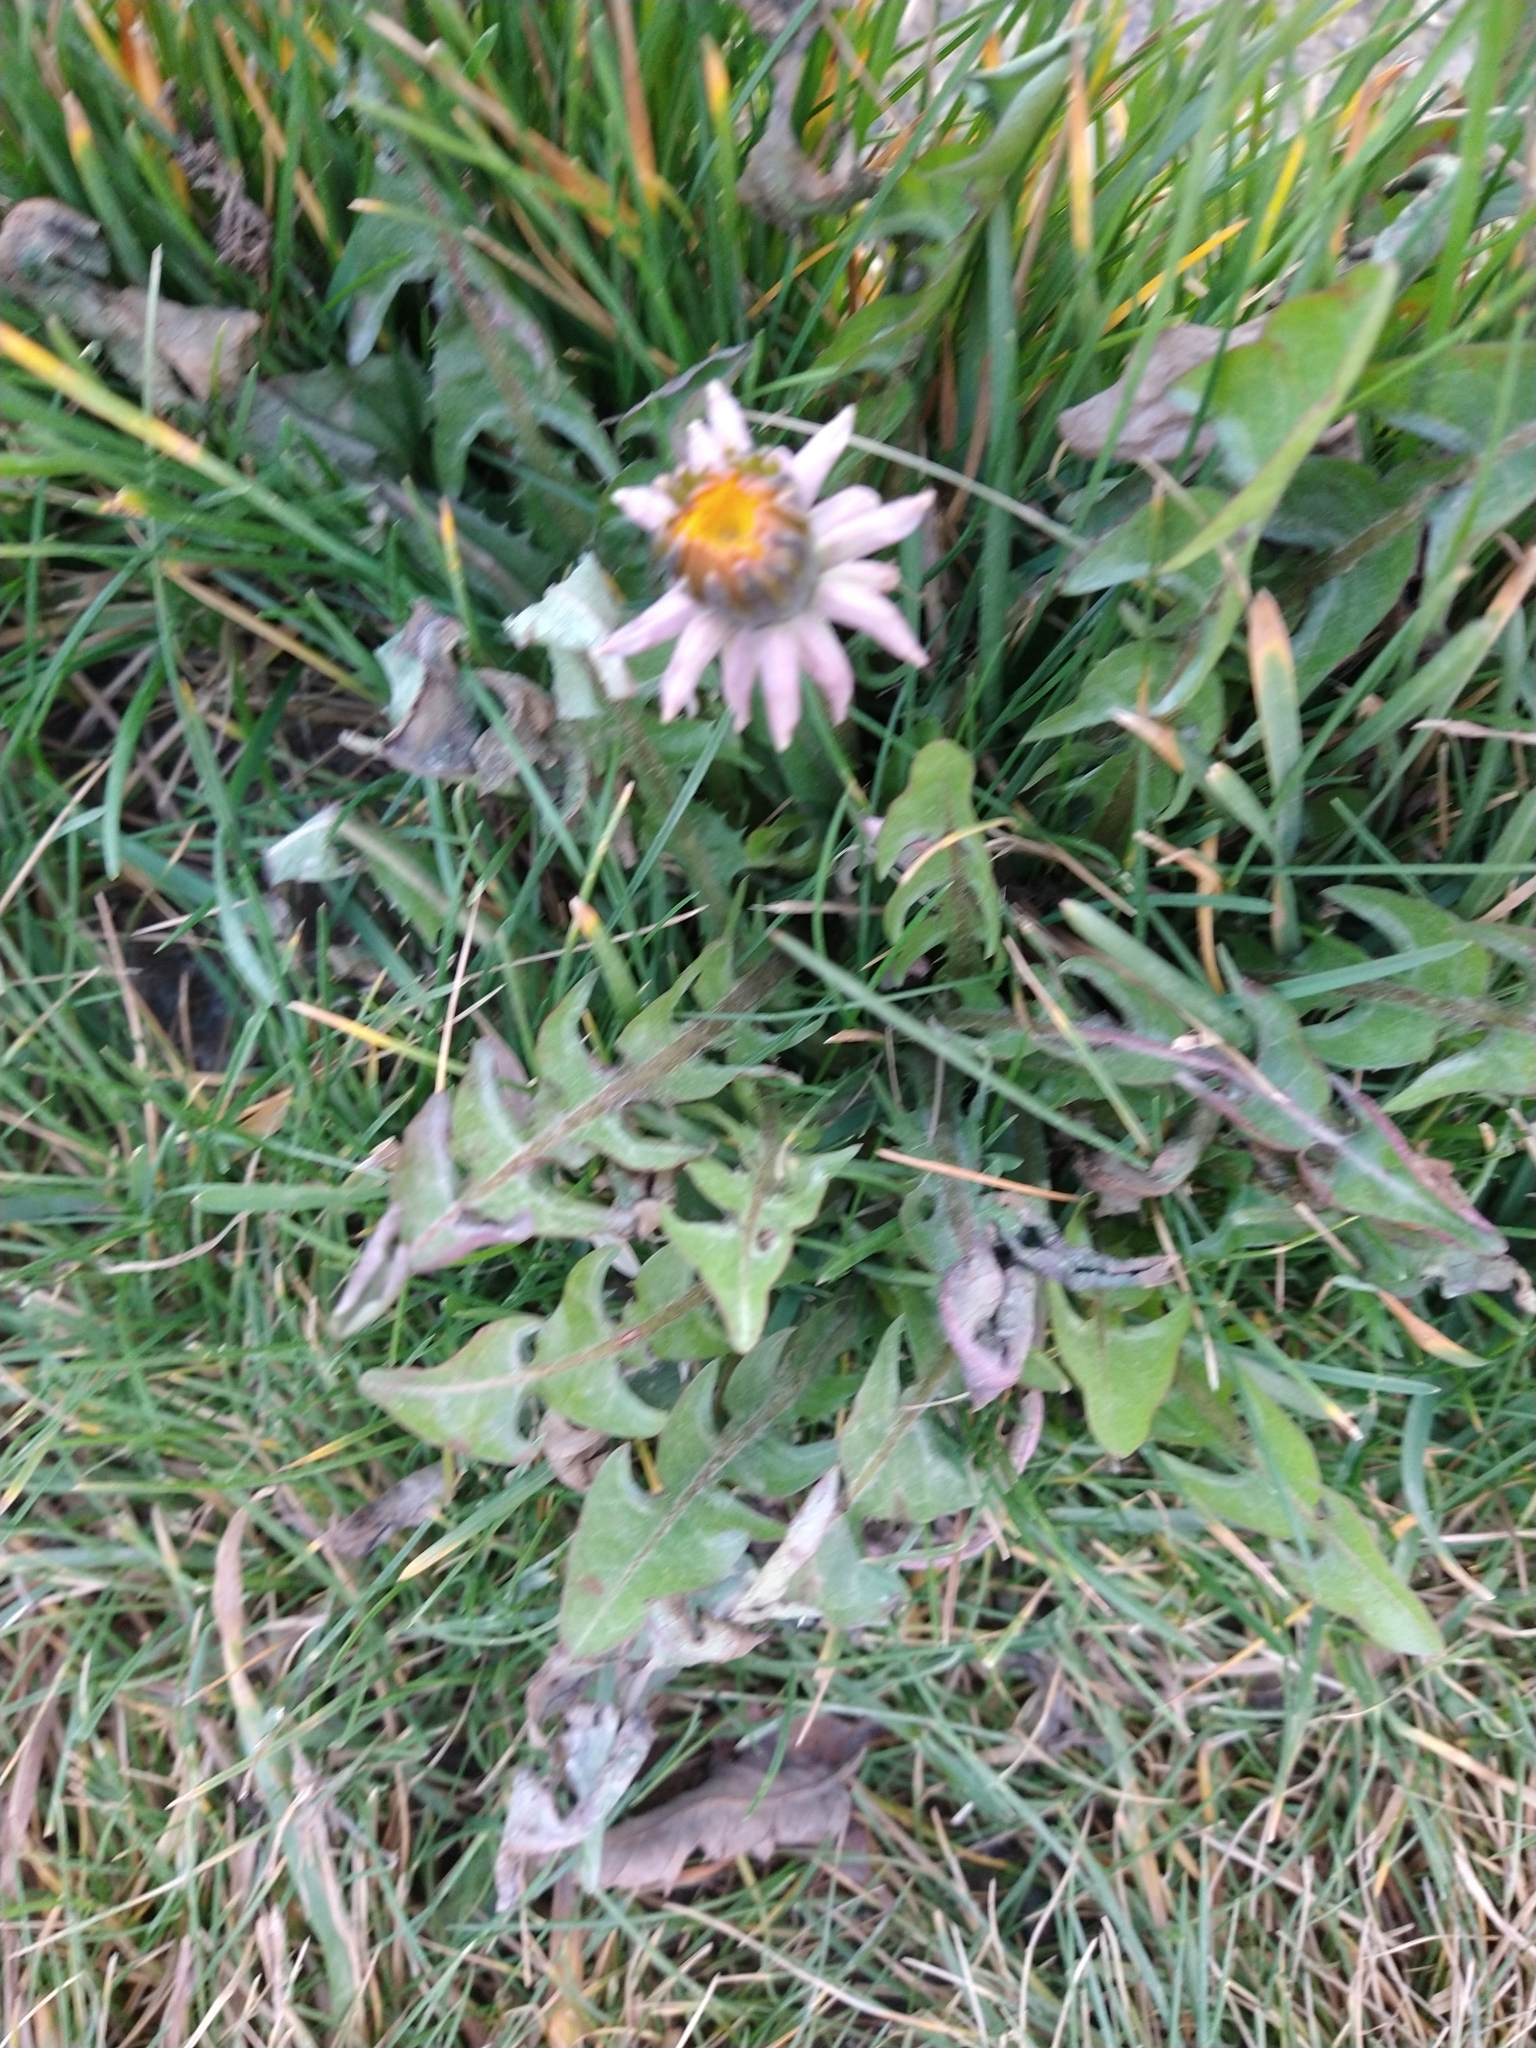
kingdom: Plantae
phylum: Tracheophyta
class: Magnoliopsida
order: Asterales
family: Asteraceae
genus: Taraxacum
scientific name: Taraxacum officinale
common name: Common dandelion
